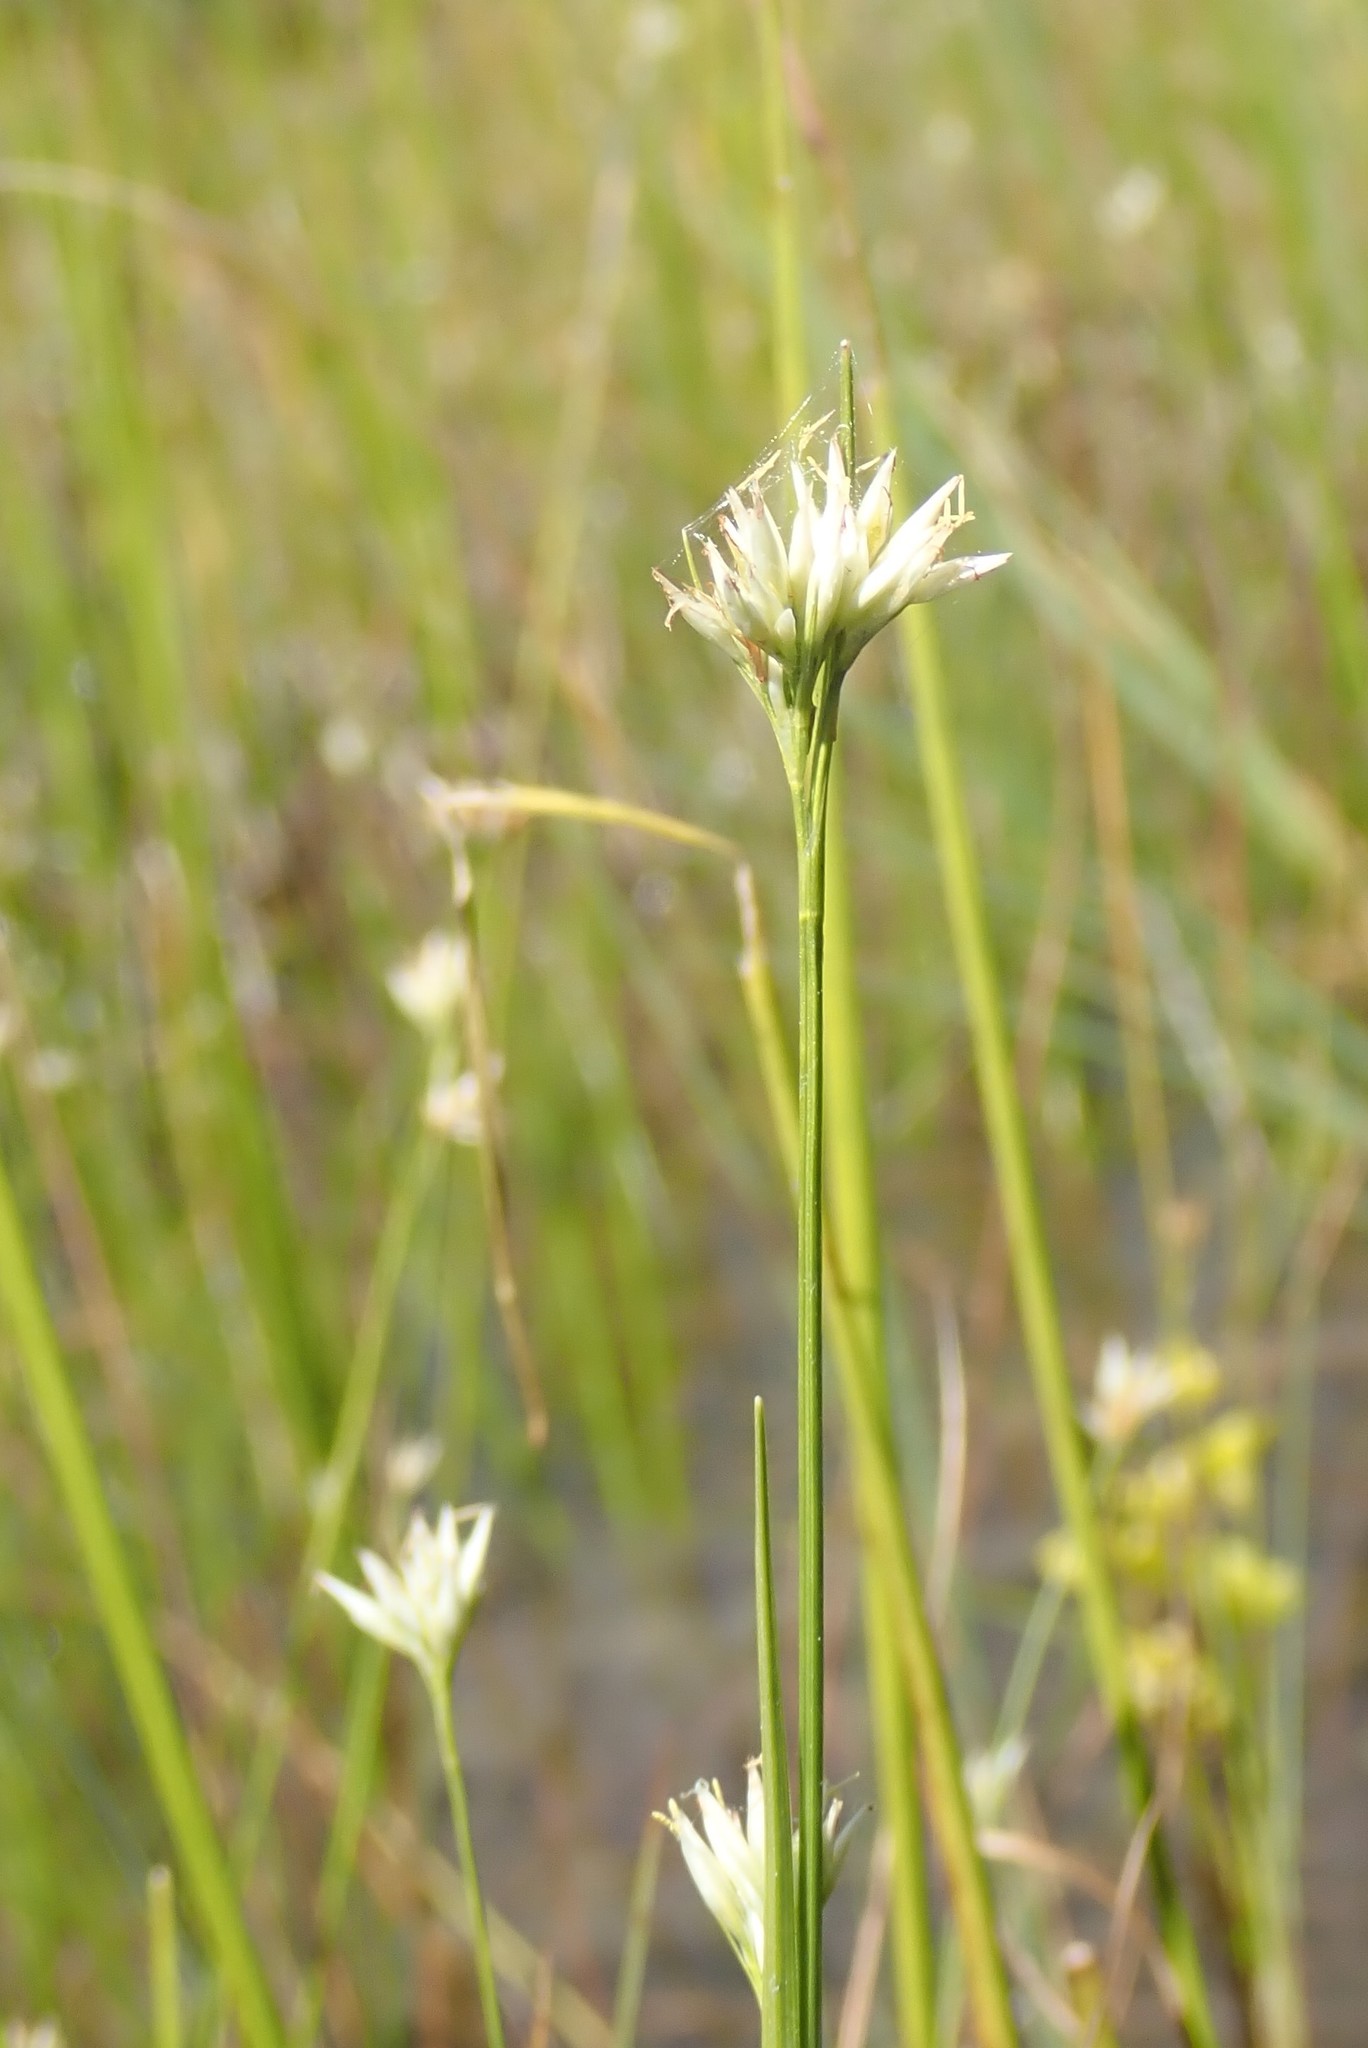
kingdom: Plantae
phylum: Tracheophyta
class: Liliopsida
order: Poales
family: Cyperaceae
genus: Rhynchospora
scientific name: Rhynchospora alba
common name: White beak-sedge
